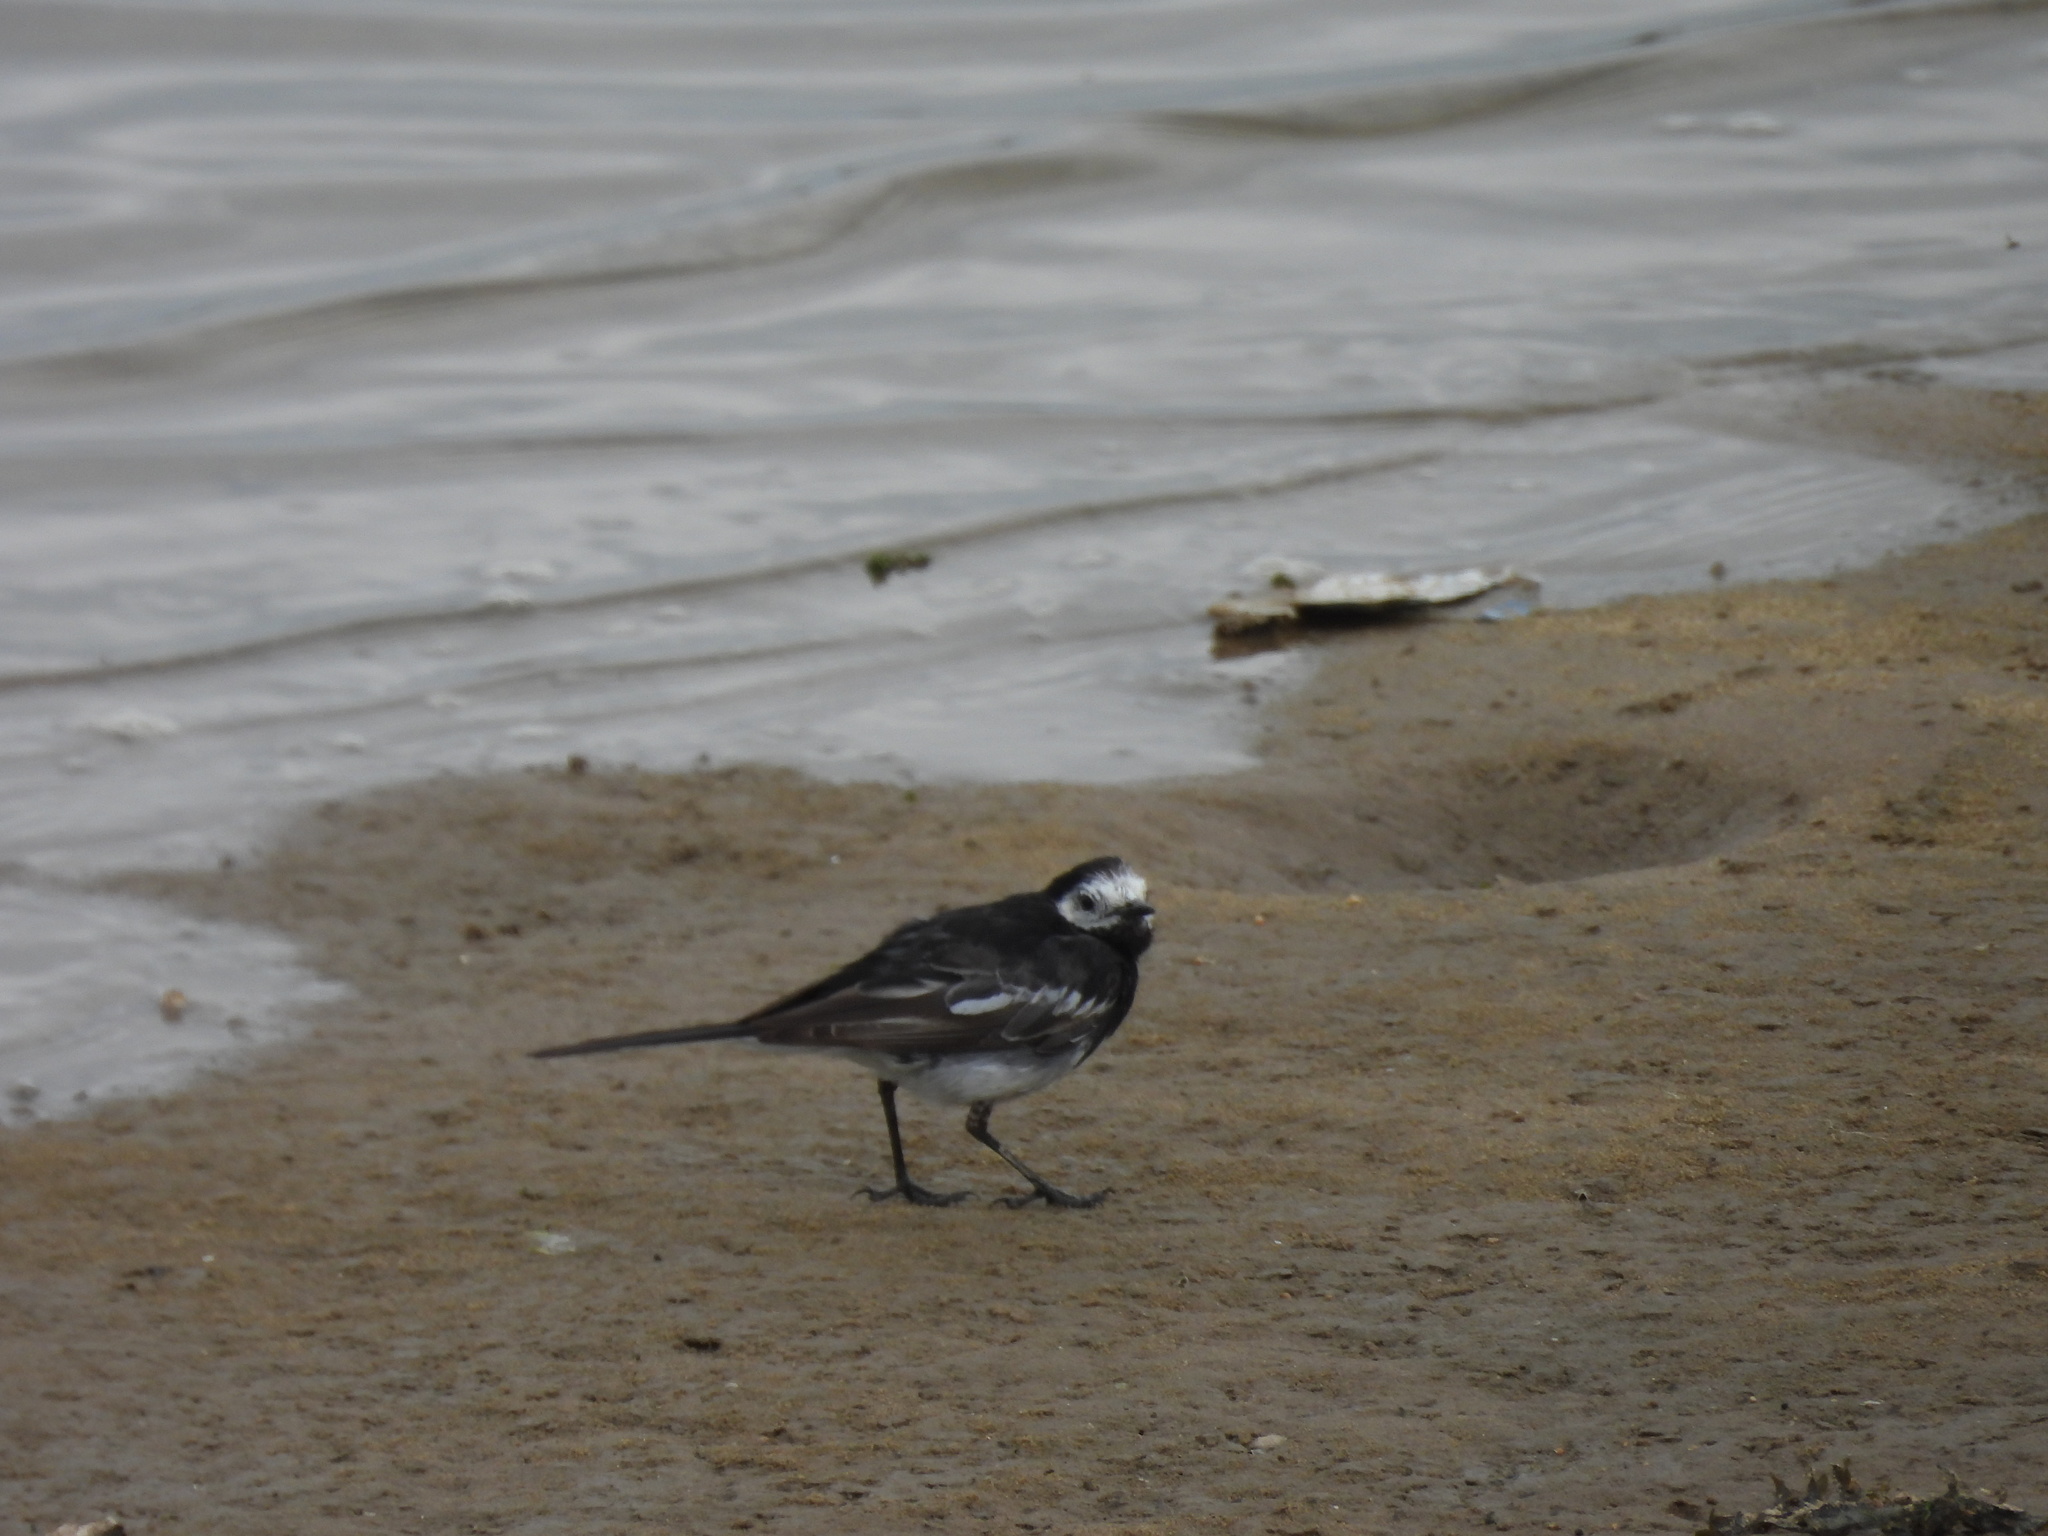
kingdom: Animalia
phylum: Chordata
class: Aves
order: Passeriformes
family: Motacillidae
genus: Motacilla
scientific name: Motacilla alba
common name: White wagtail
